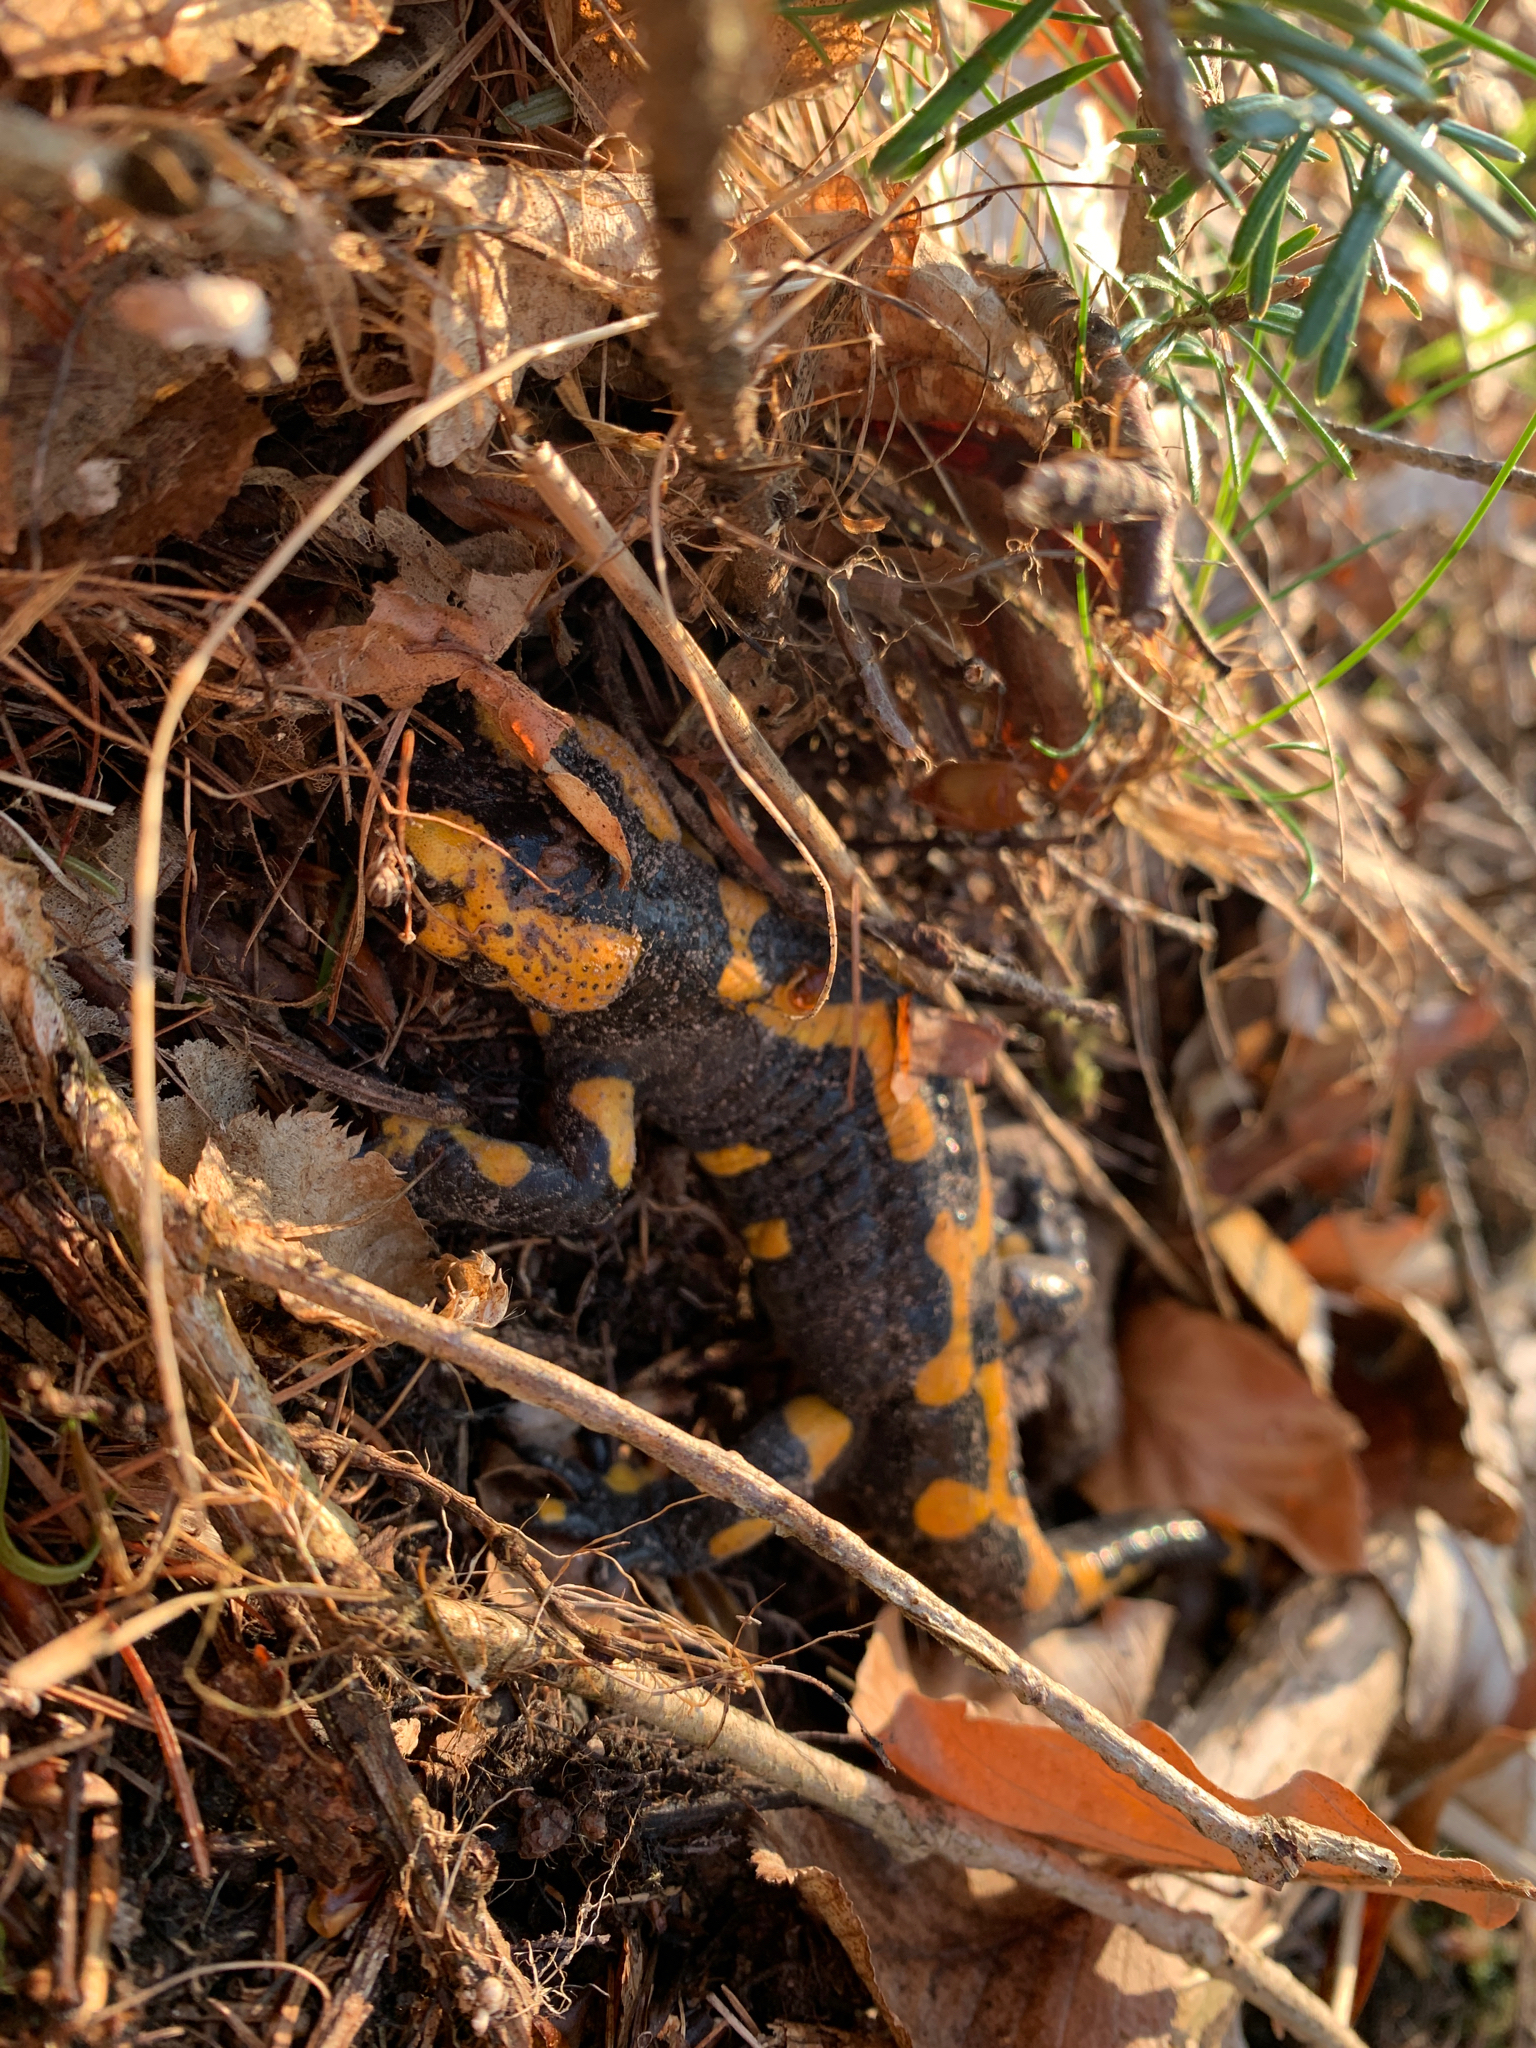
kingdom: Animalia
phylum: Chordata
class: Amphibia
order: Caudata
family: Salamandridae
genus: Salamandra
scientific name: Salamandra salamandra
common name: Fire salamander
